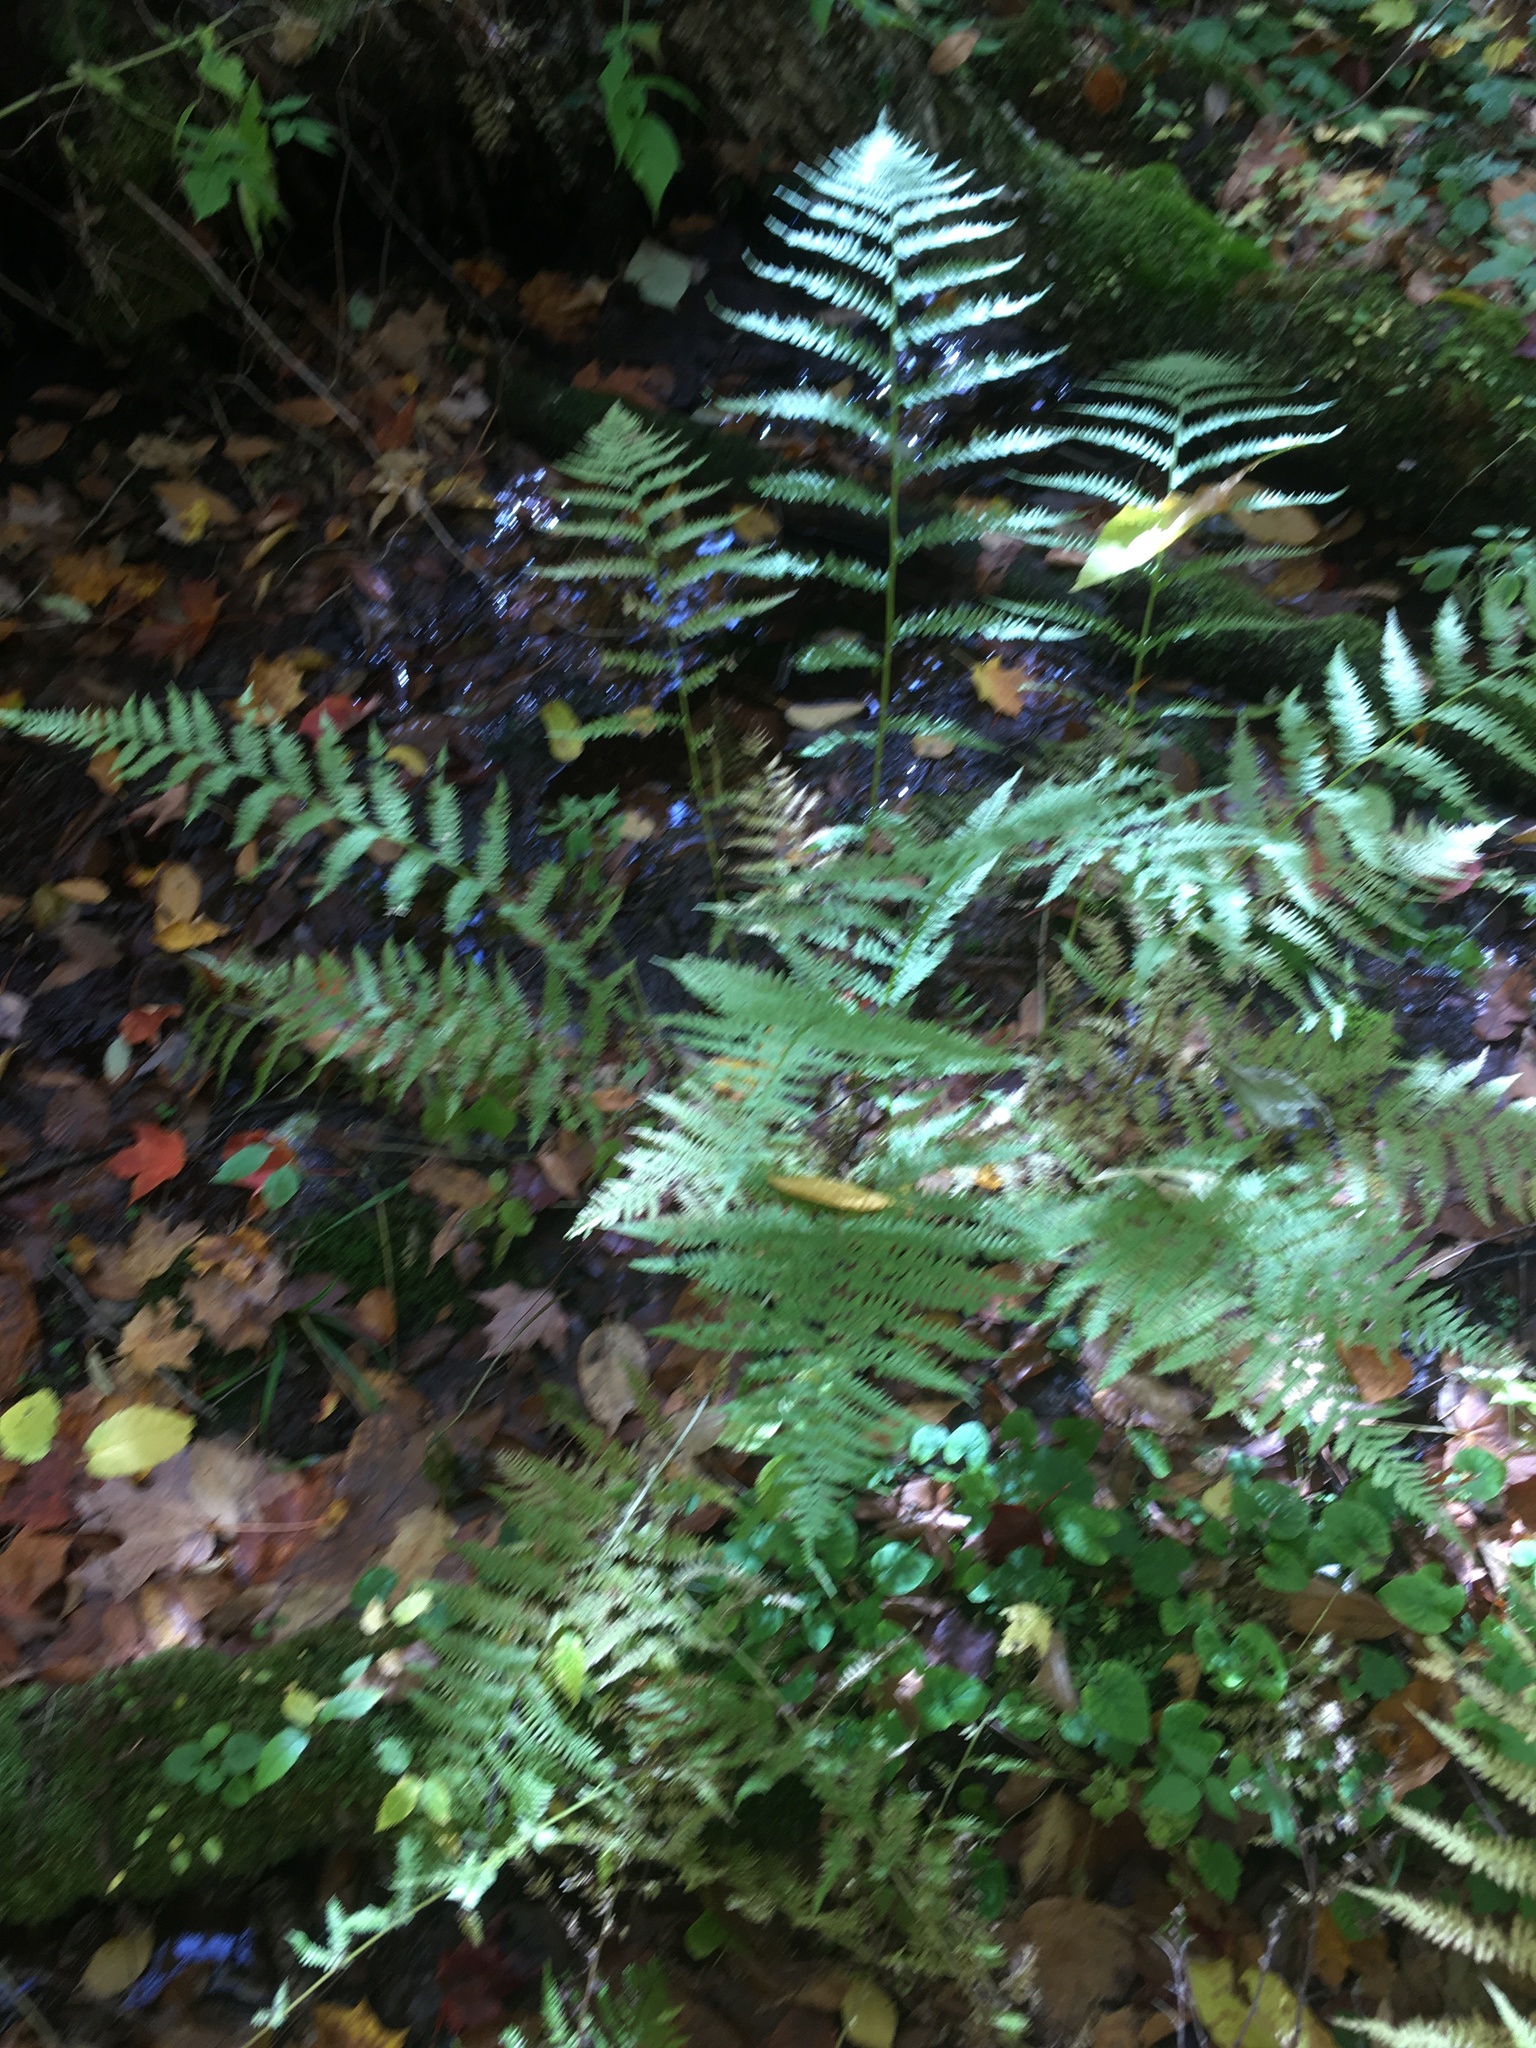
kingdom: Plantae
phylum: Tracheophyta
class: Polypodiopsida
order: Polypodiales
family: Athyriaceae
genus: Athyrium
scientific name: Athyrium angustum
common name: Northern lady fern
